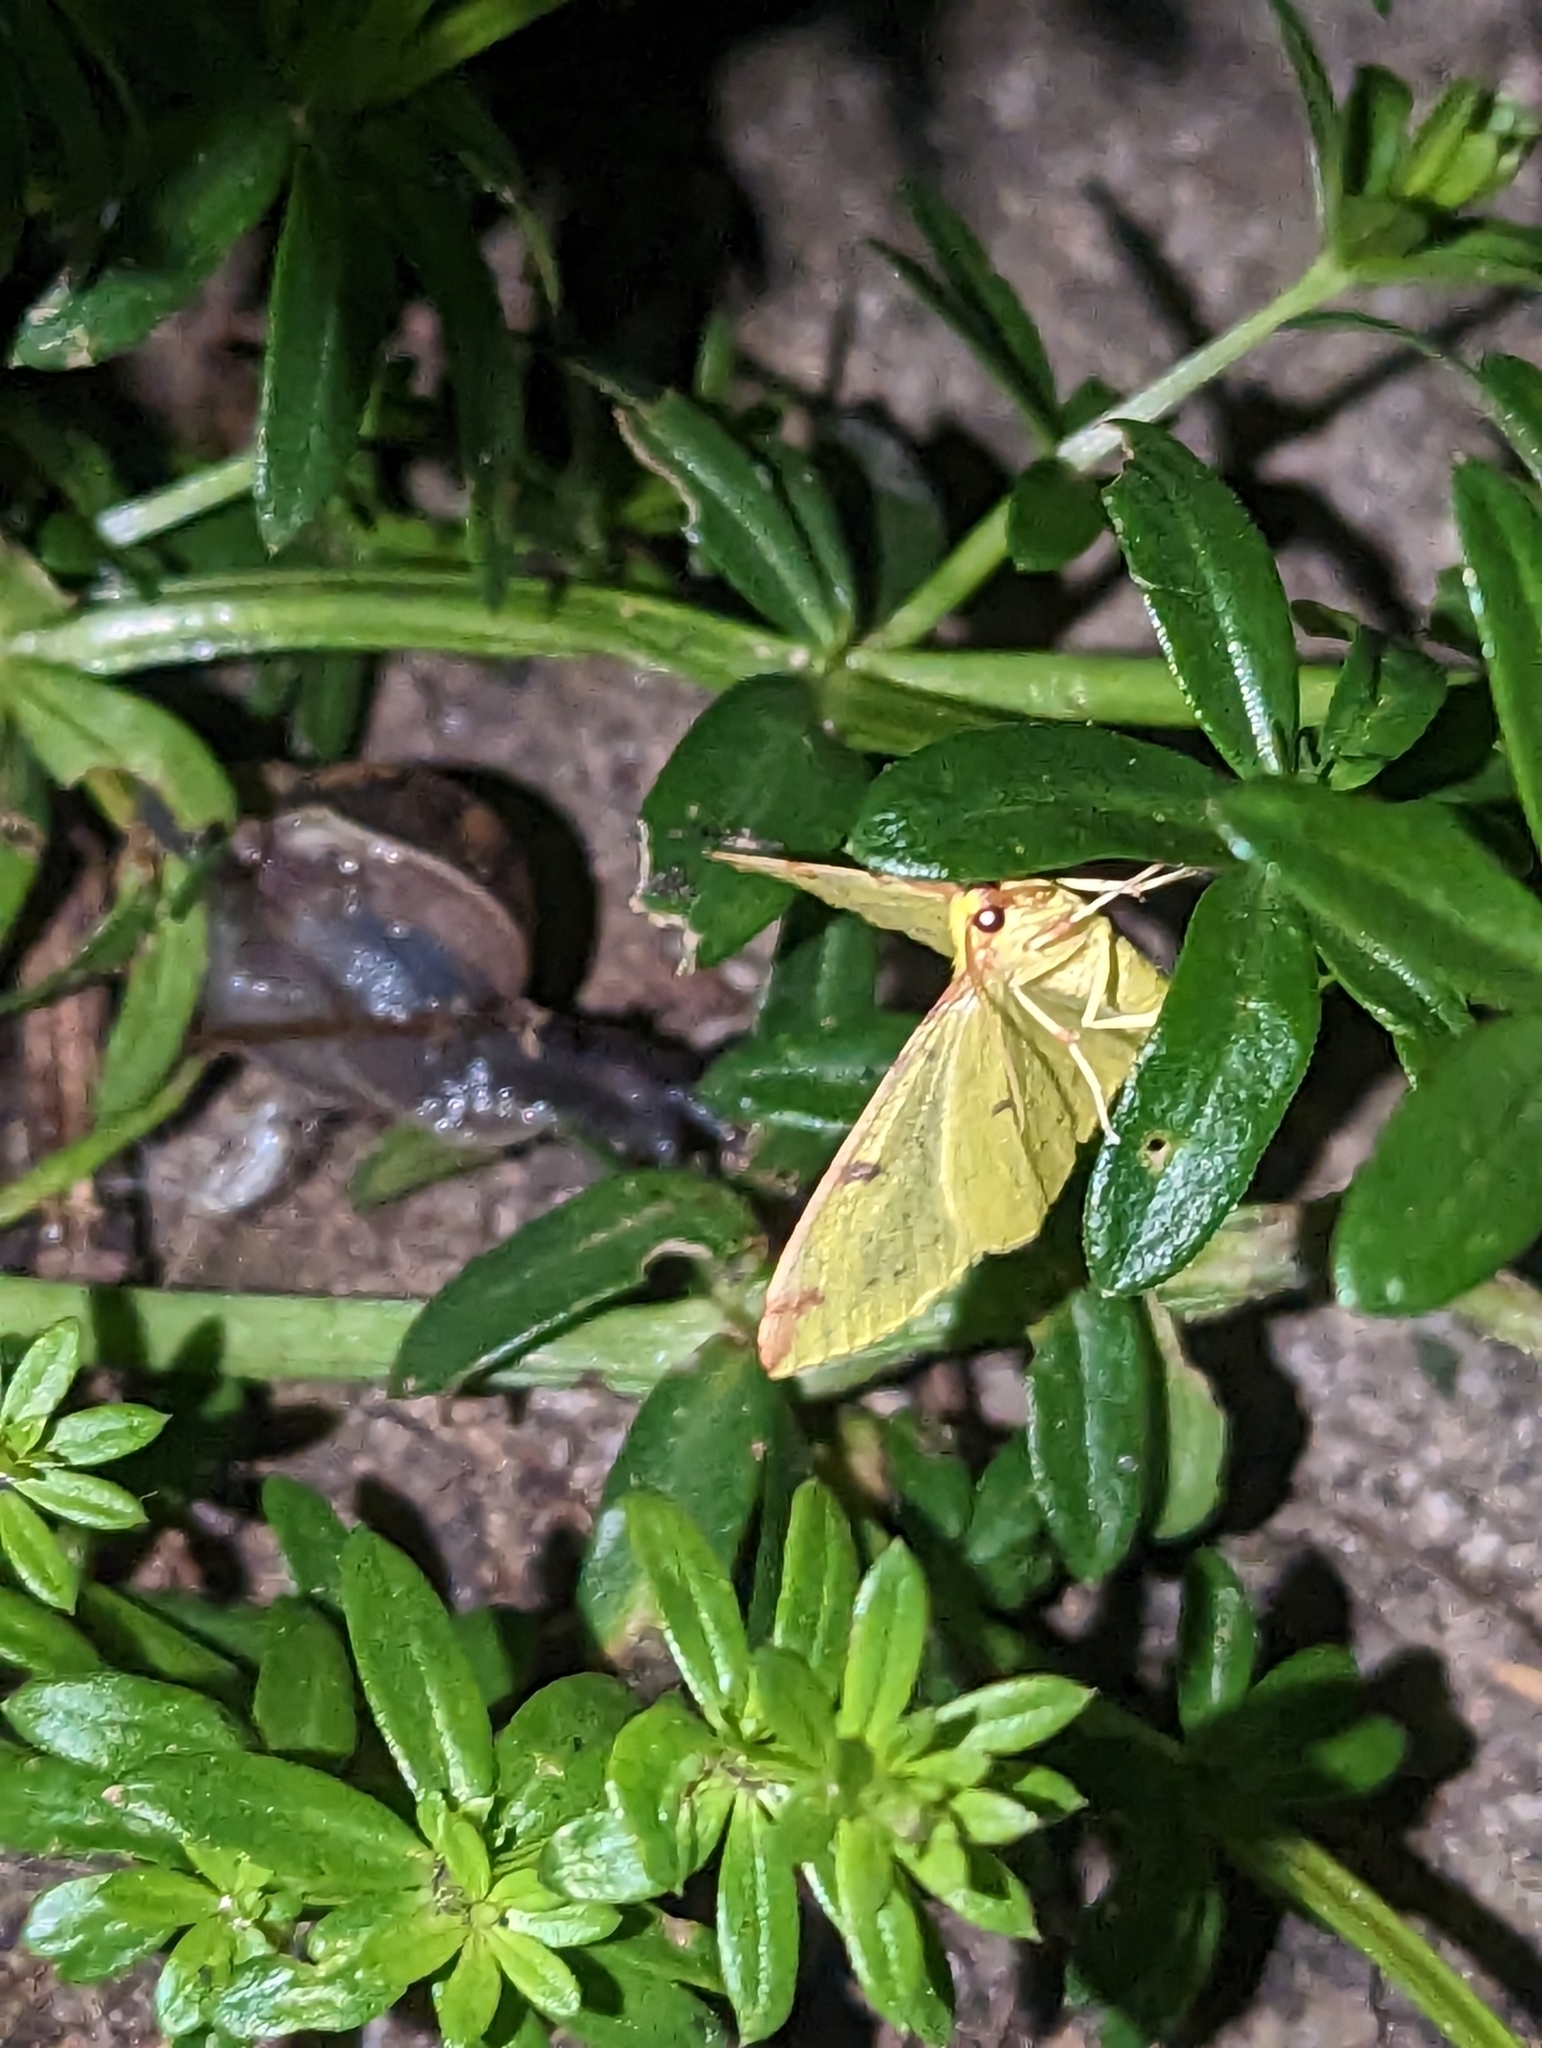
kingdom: Animalia
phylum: Arthropoda
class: Insecta
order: Lepidoptera
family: Geometridae
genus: Opisthograptis
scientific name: Opisthograptis luteolata
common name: Brimstone moth
